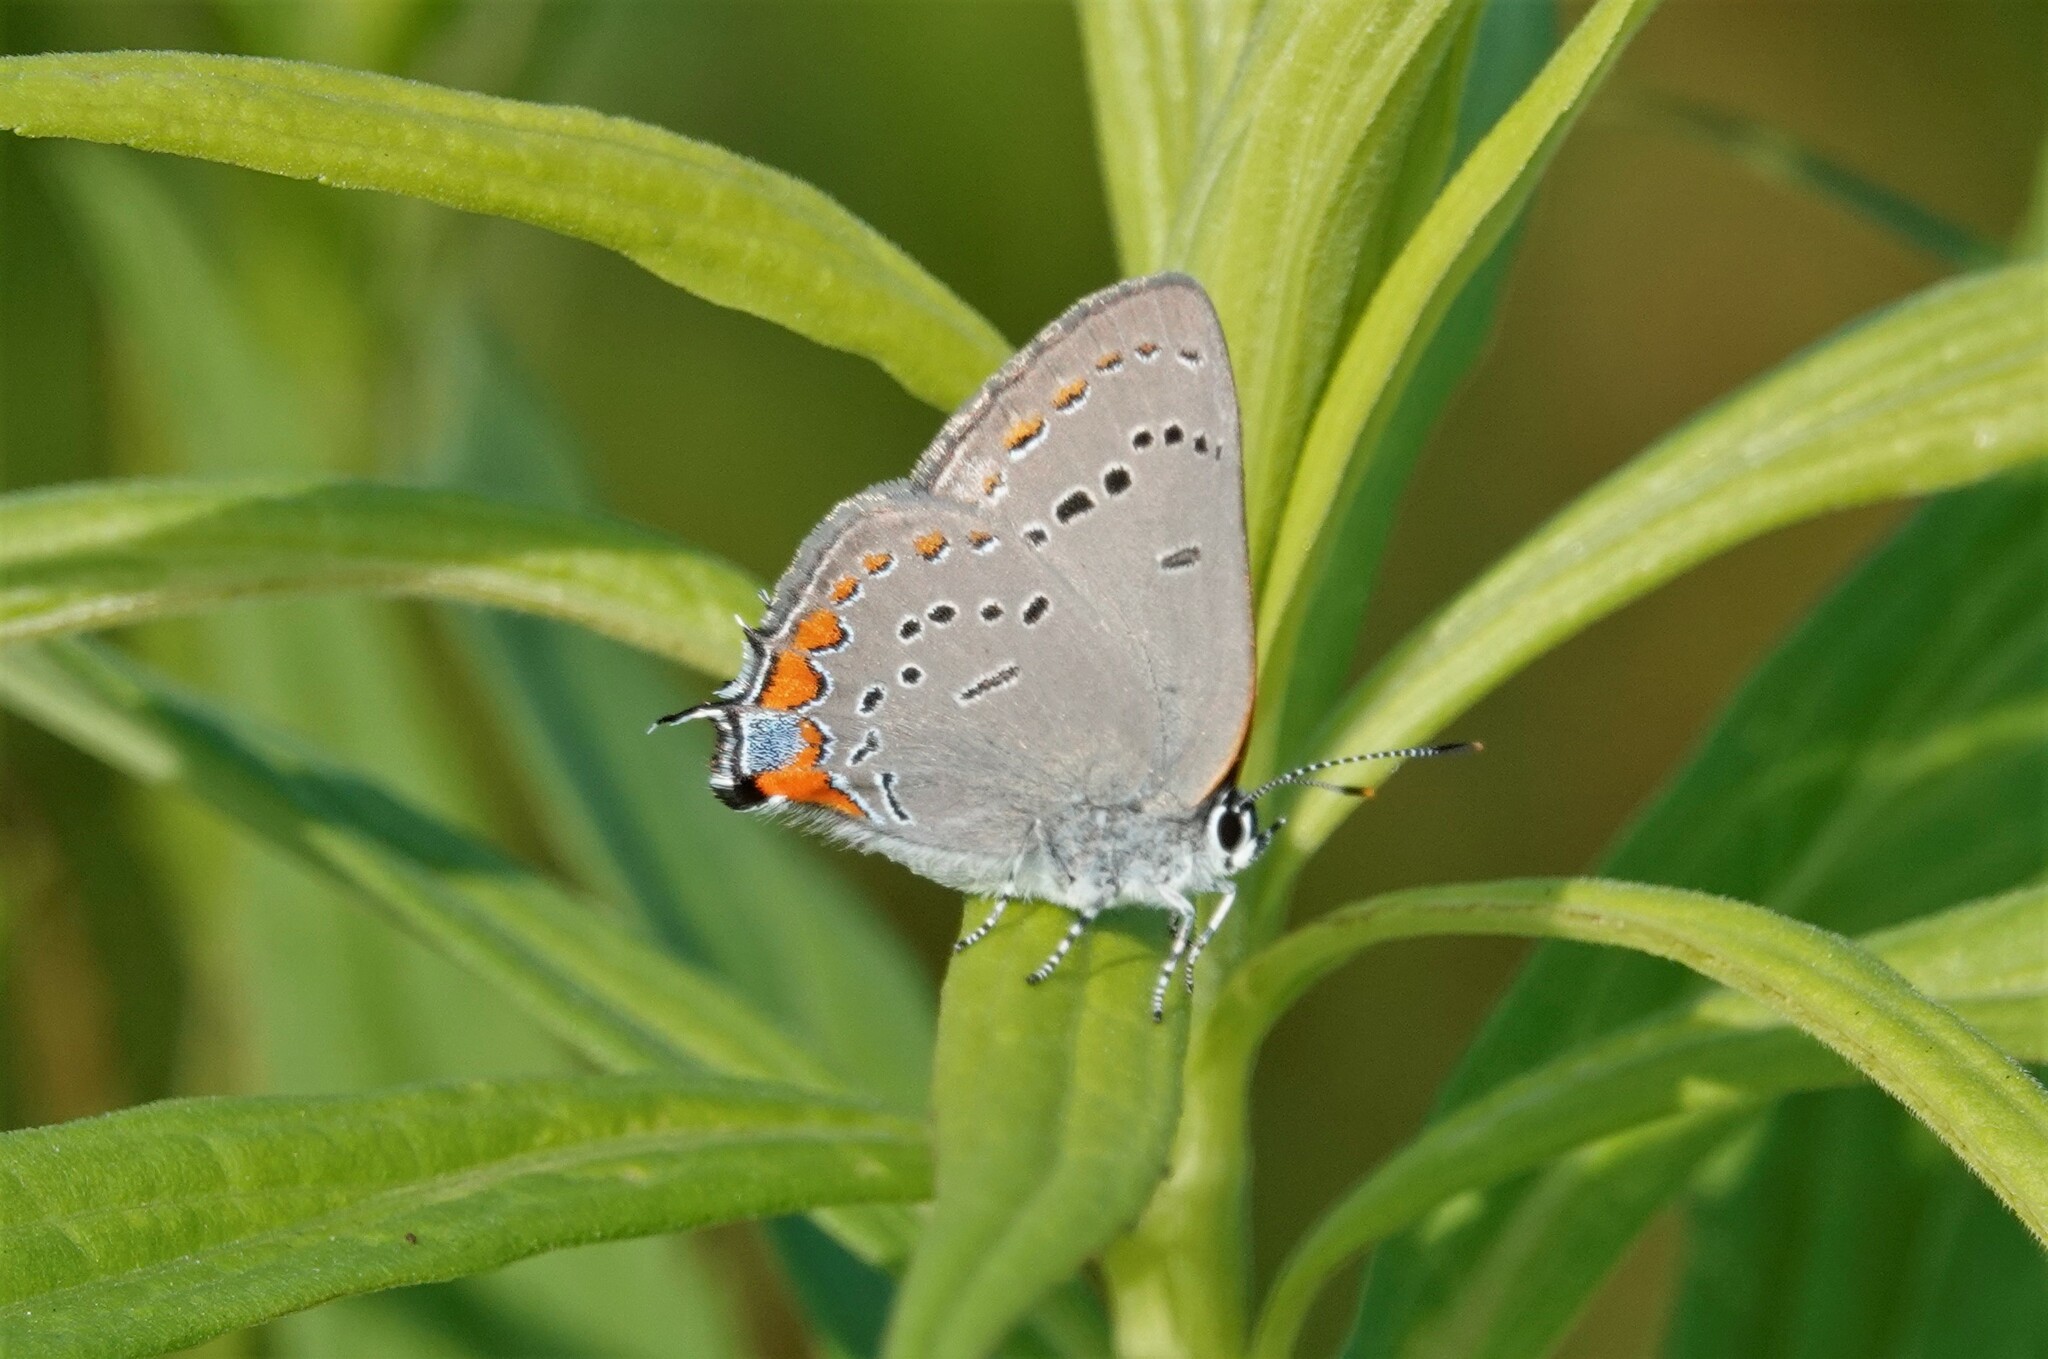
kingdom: Animalia
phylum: Arthropoda
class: Insecta
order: Lepidoptera
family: Lycaenidae
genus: Strymon
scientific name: Strymon acadica
